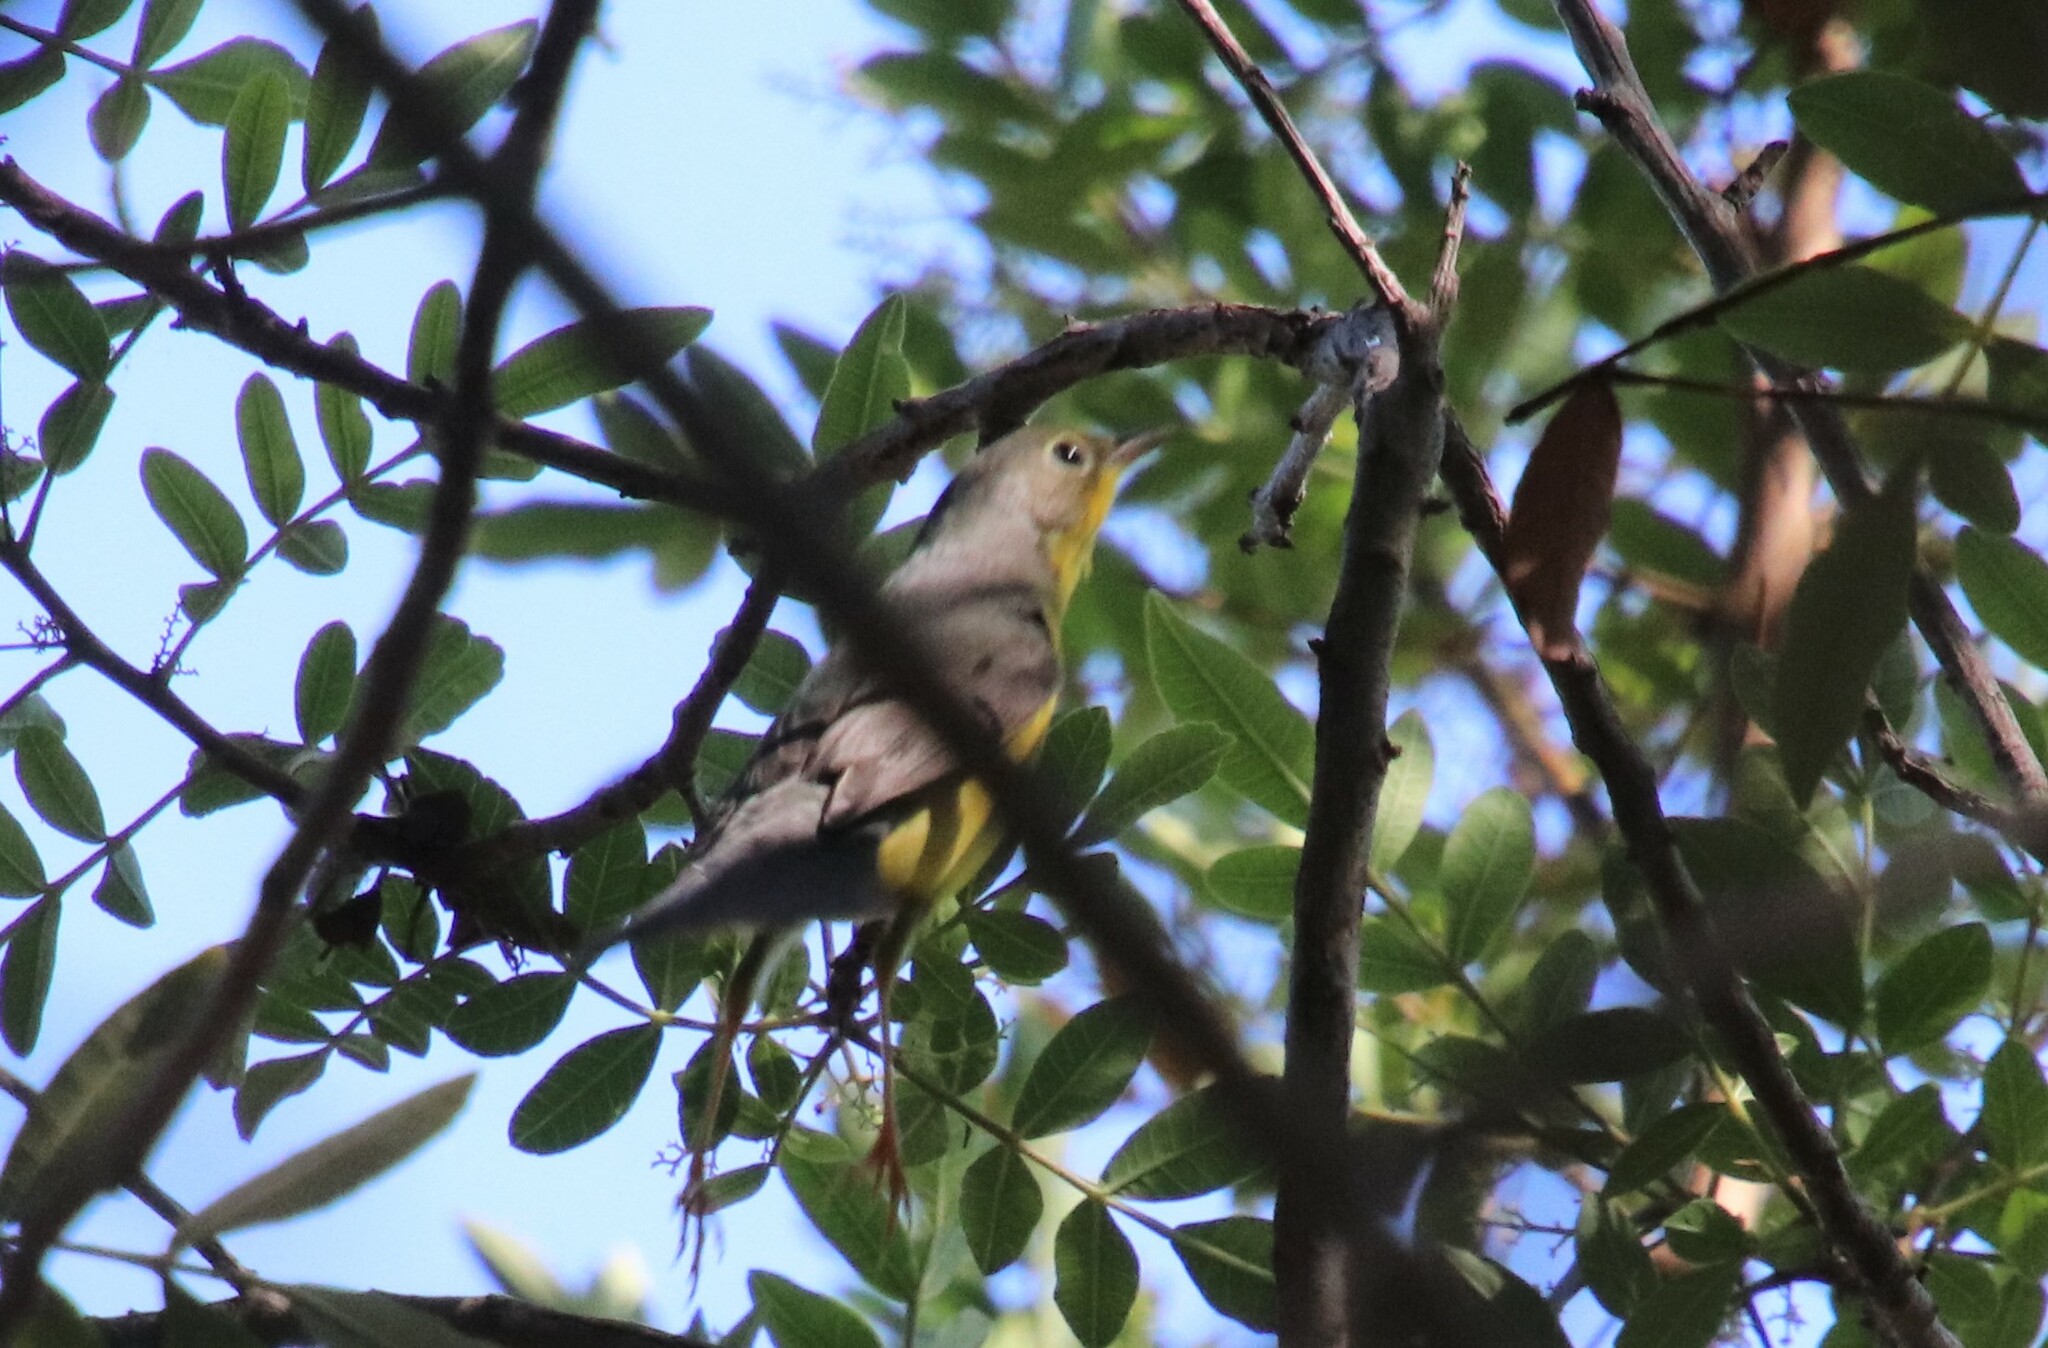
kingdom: Animalia
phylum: Chordata
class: Aves
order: Passeriformes
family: Parulidae
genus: Cardellina
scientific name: Cardellina canadensis
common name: Canada warbler
